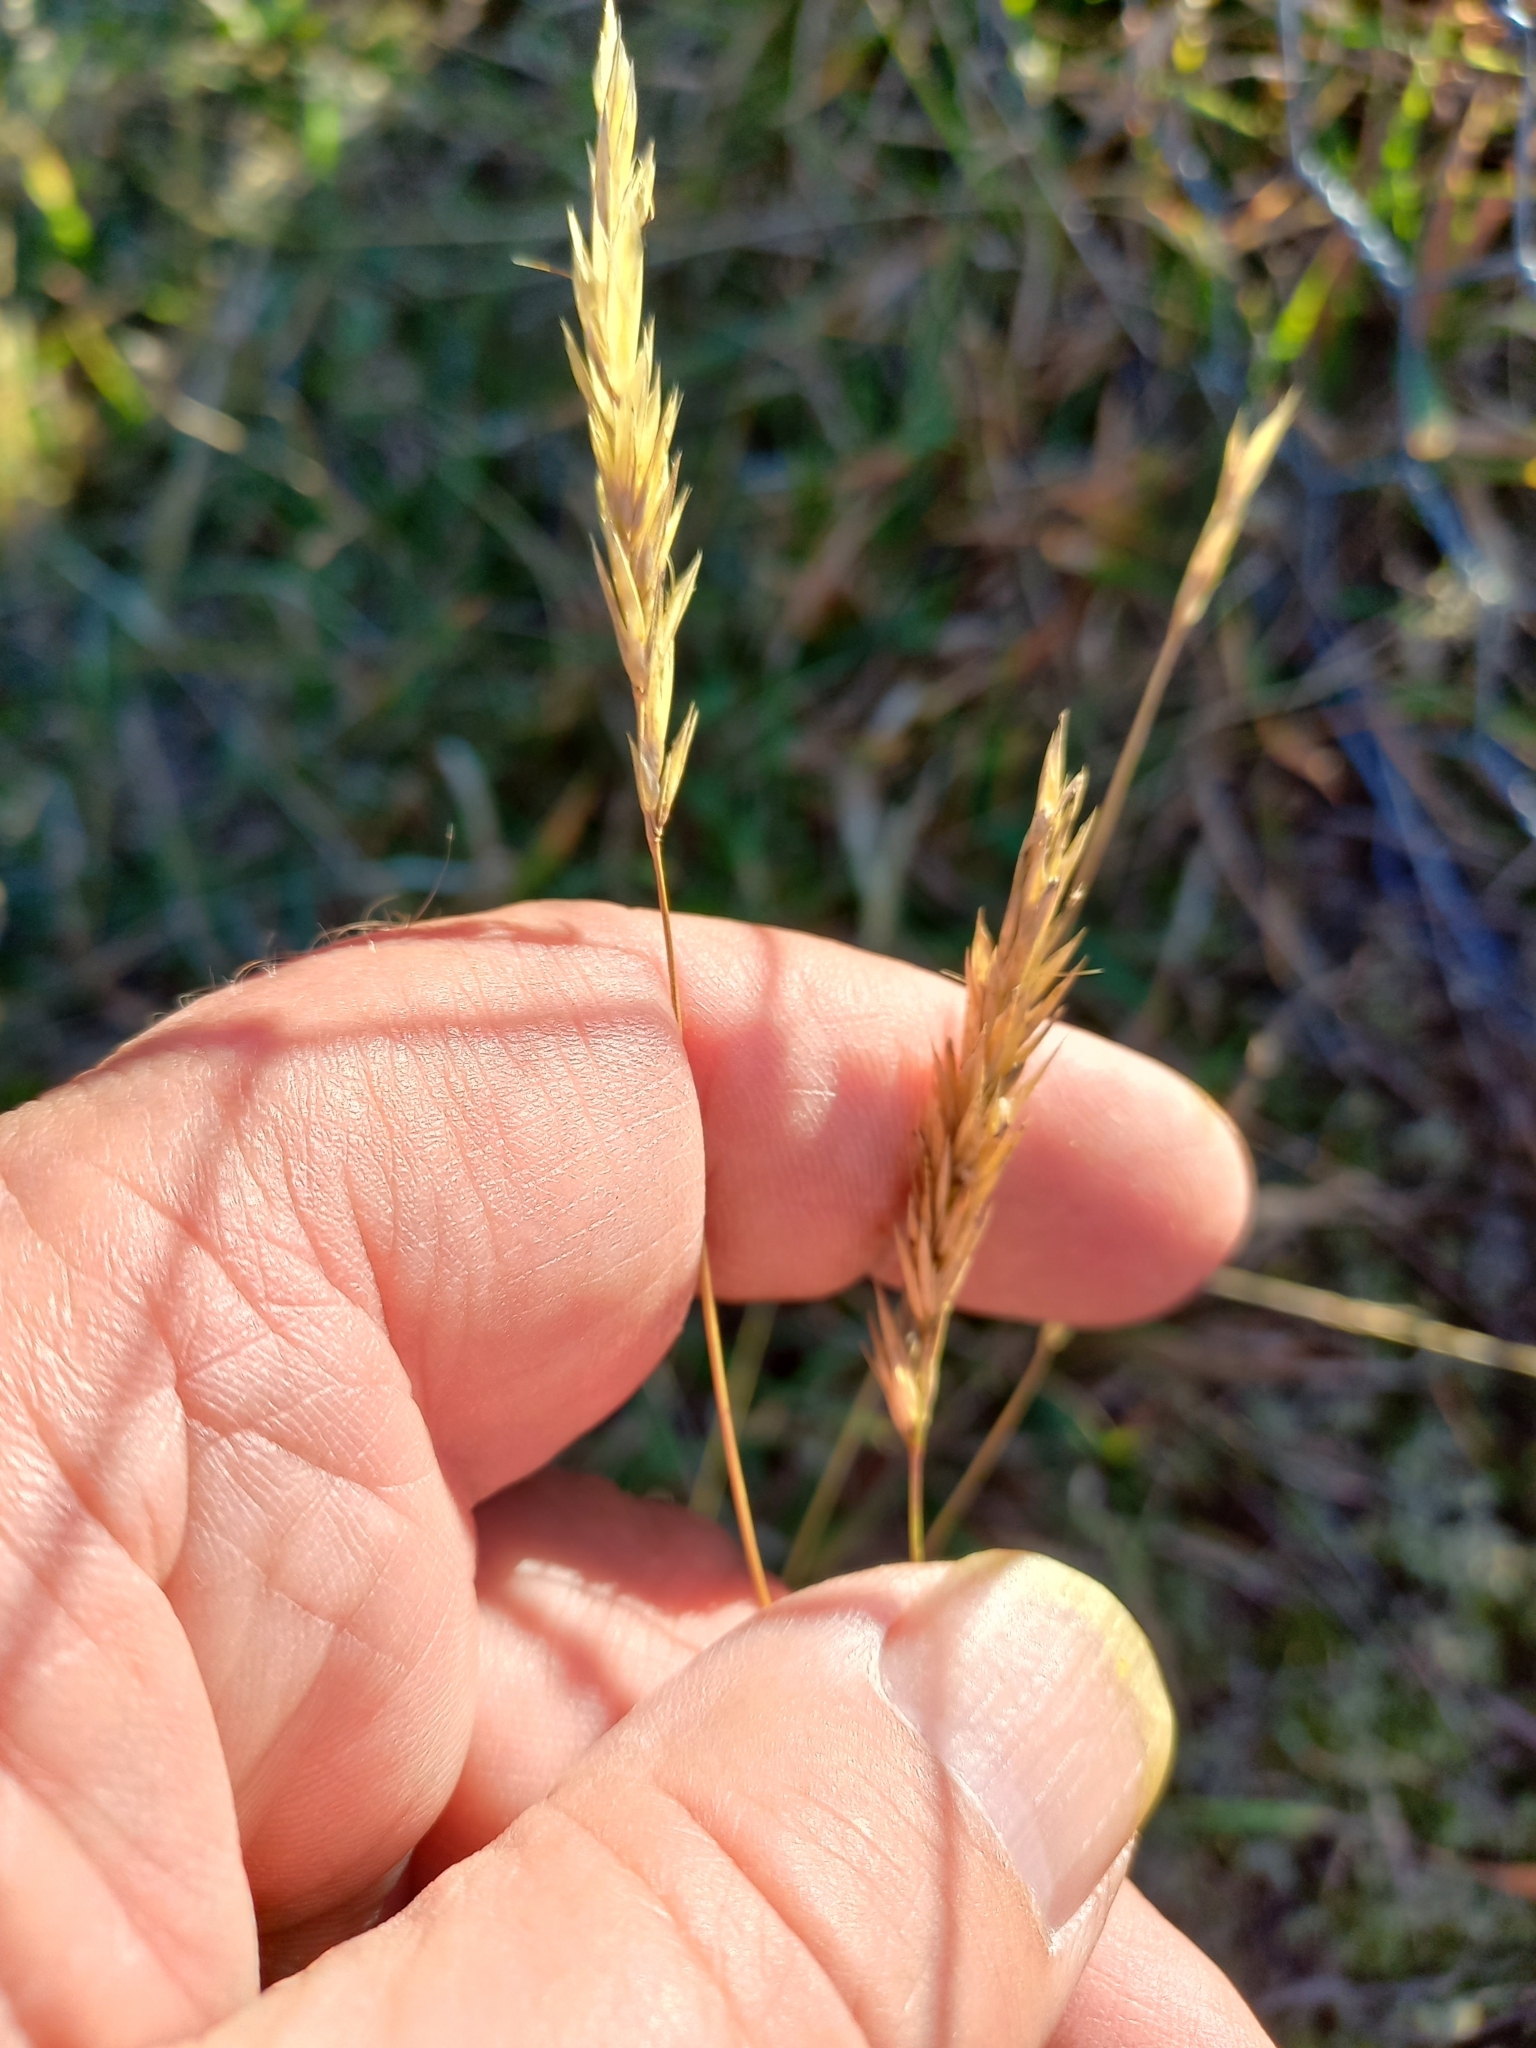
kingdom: Plantae
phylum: Tracheophyta
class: Liliopsida
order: Poales
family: Poaceae
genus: Anthoxanthum
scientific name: Anthoxanthum odoratum
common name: Sweet vernalgrass
